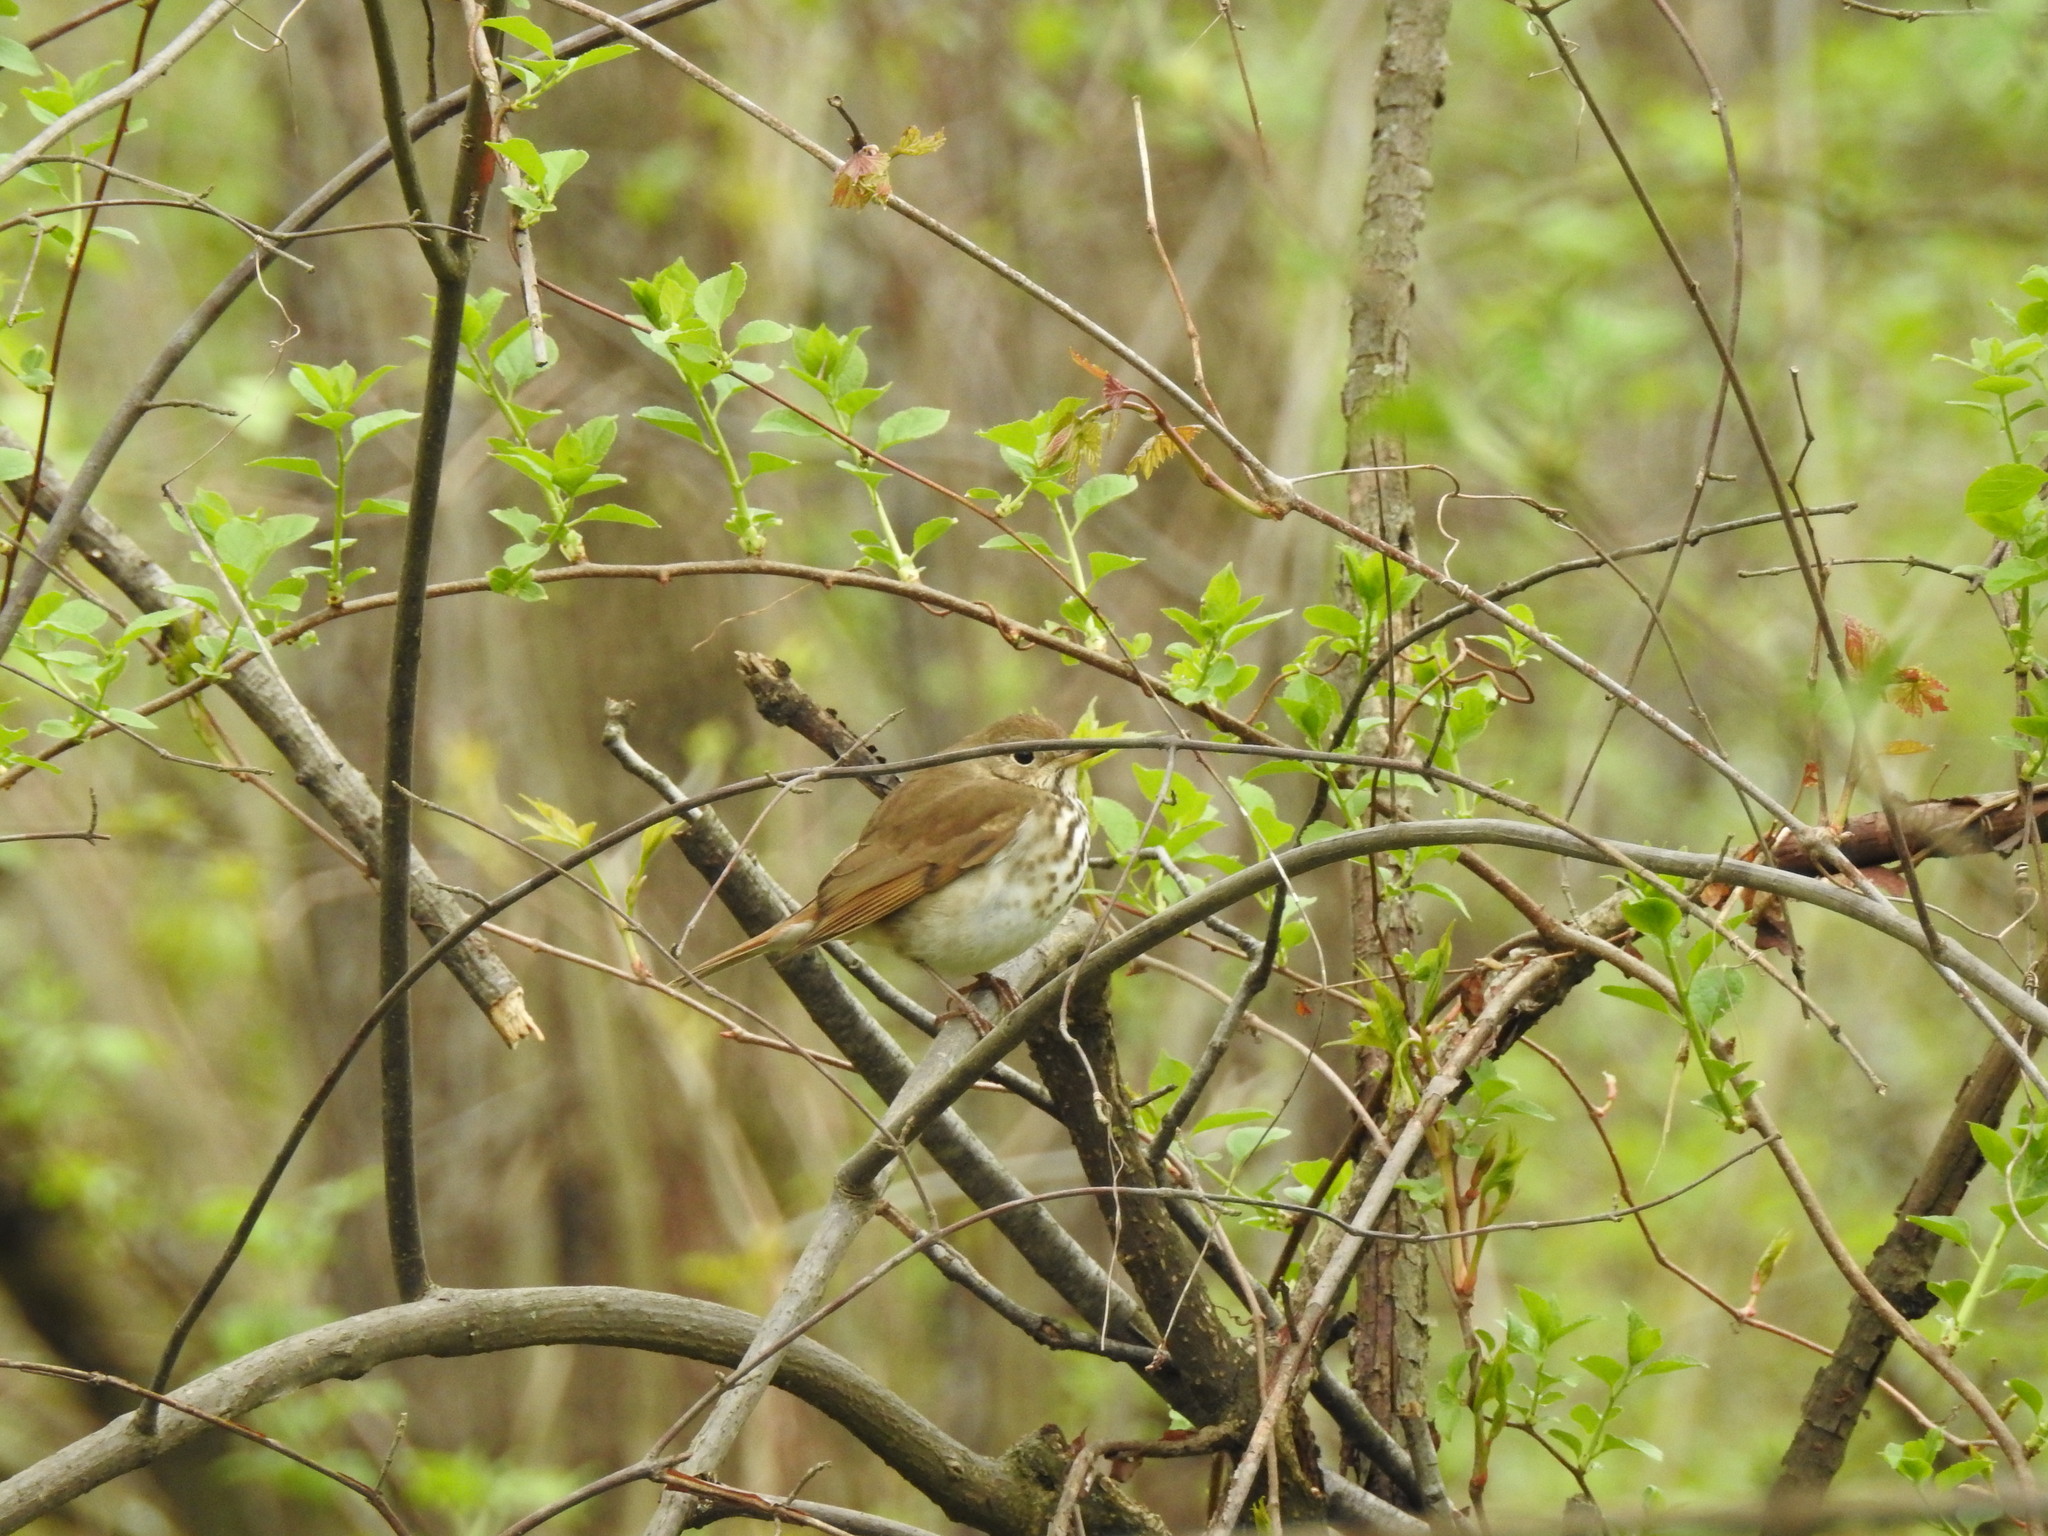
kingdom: Animalia
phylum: Chordata
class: Aves
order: Passeriformes
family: Turdidae
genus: Catharus
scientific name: Catharus guttatus
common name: Hermit thrush
